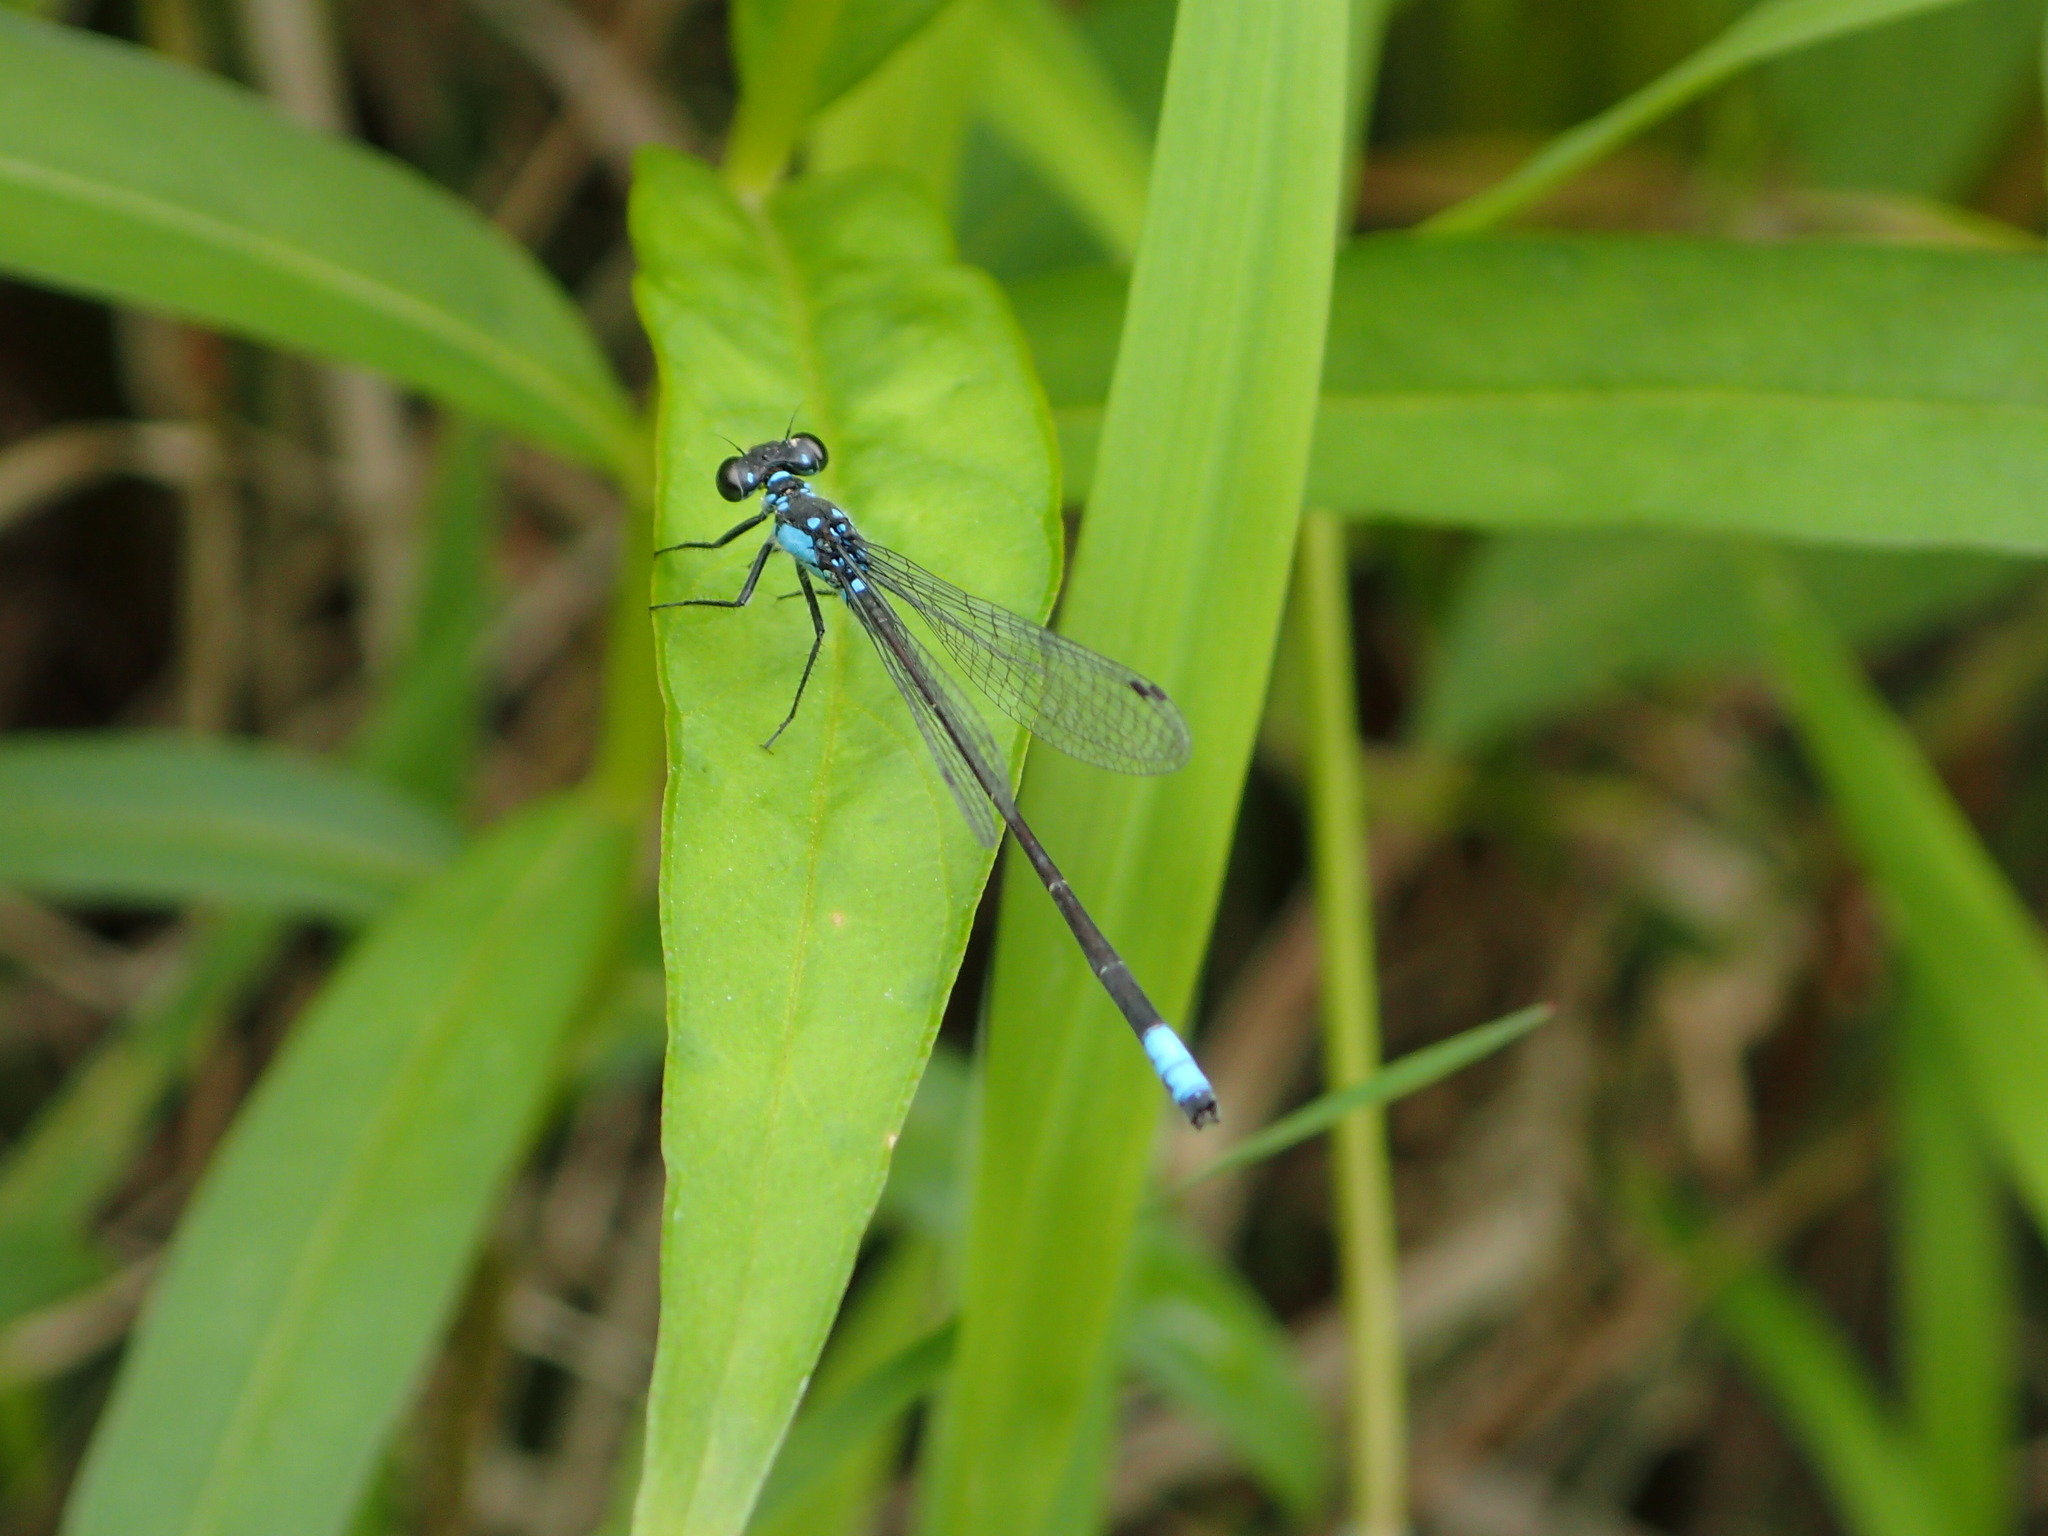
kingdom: Animalia
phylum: Arthropoda
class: Insecta
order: Odonata
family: Coenagrionidae
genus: Ischnura
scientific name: Ischnura cervula
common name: Pacific forktail
